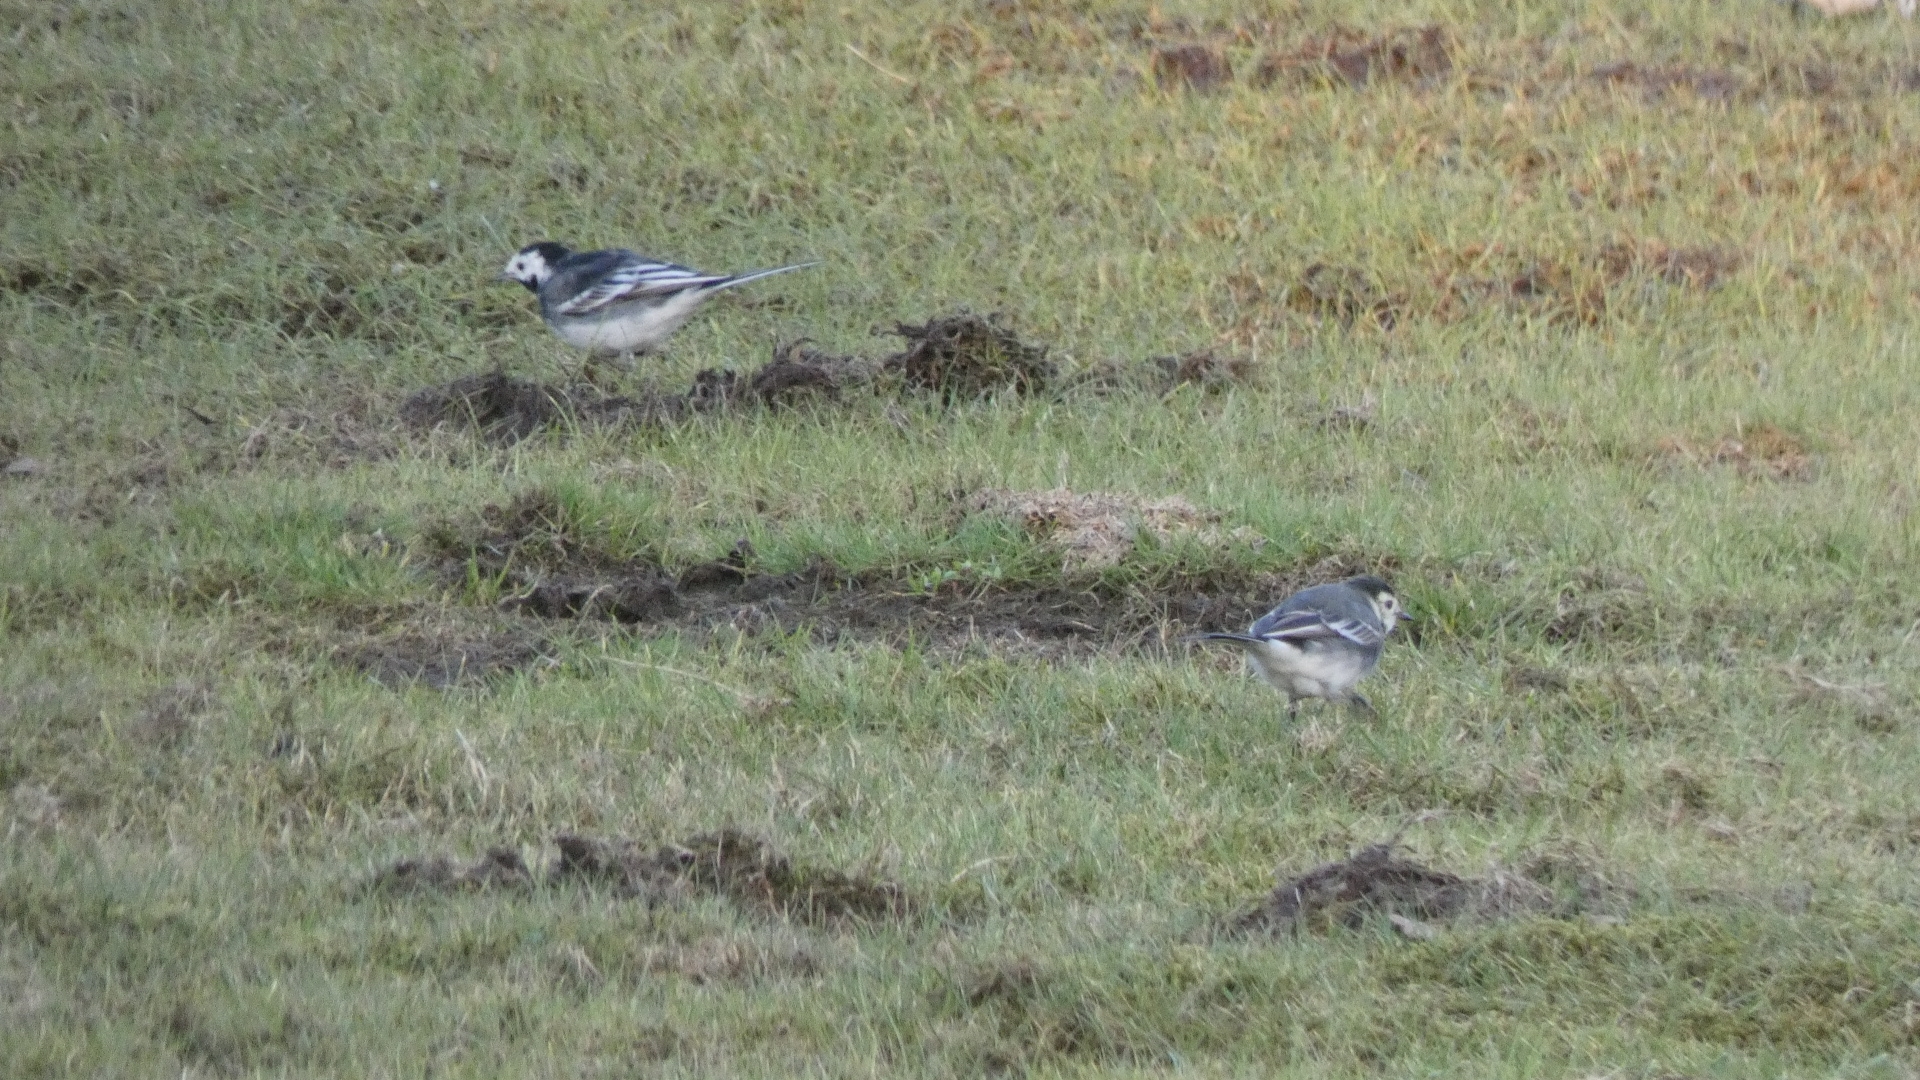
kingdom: Animalia
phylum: Chordata
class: Aves
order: Passeriformes
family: Motacillidae
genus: Motacilla
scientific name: Motacilla alba
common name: White wagtail
